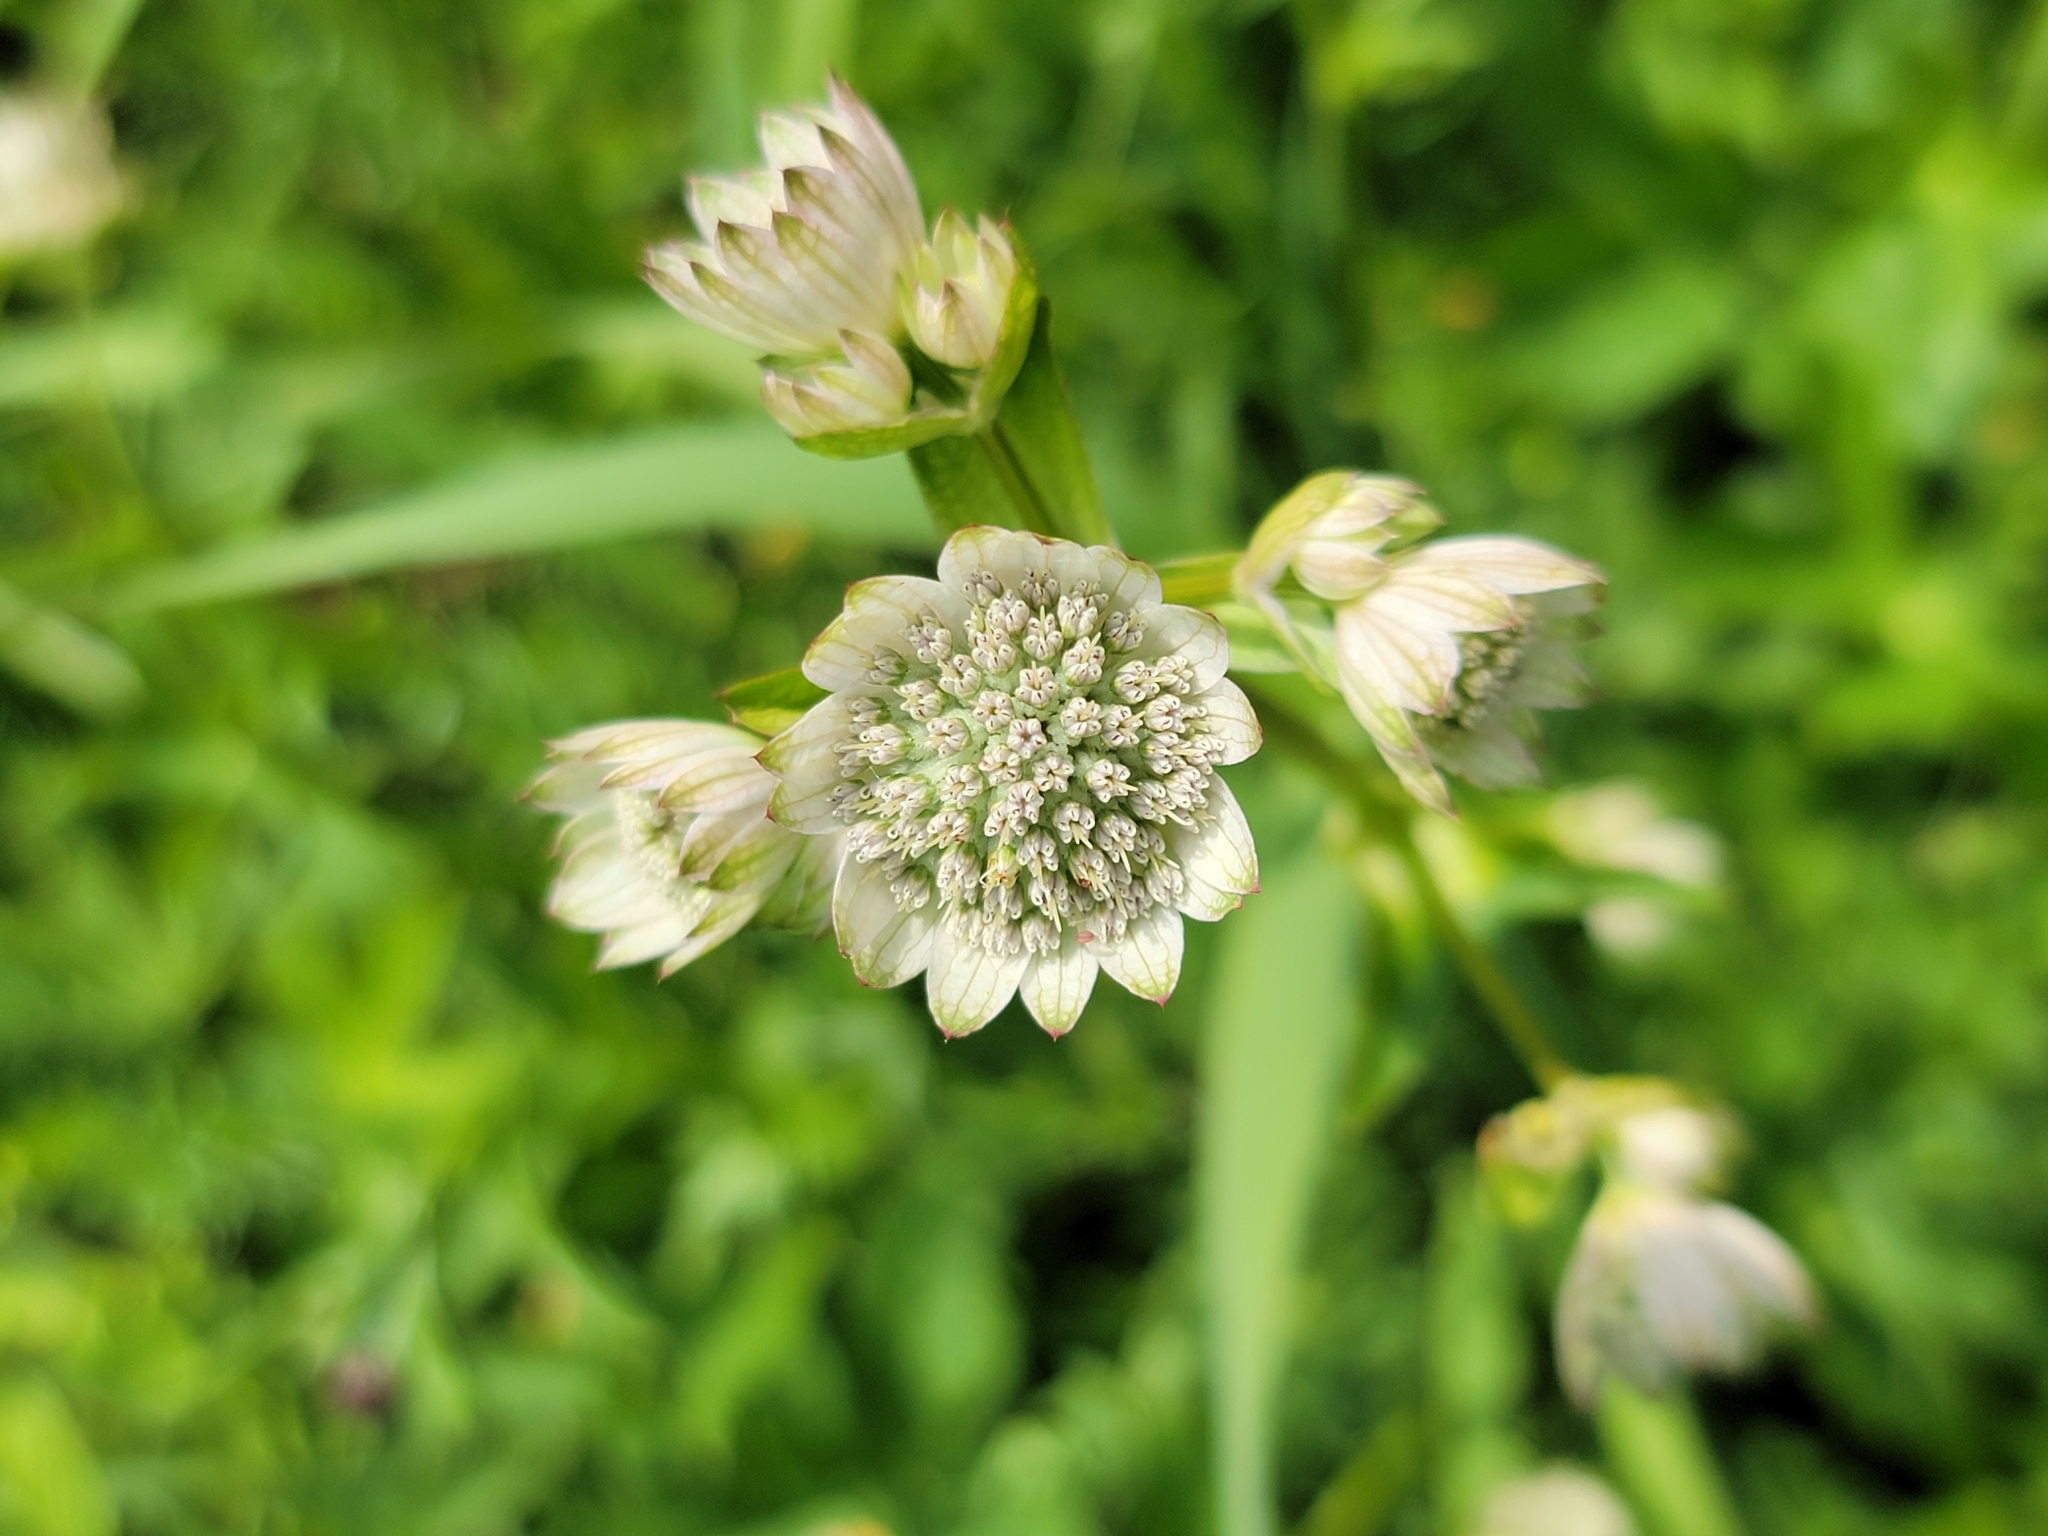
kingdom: Plantae
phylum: Tracheophyta
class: Magnoliopsida
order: Apiales
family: Apiaceae
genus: Astrantia
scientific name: Astrantia major
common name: Greater masterwort
